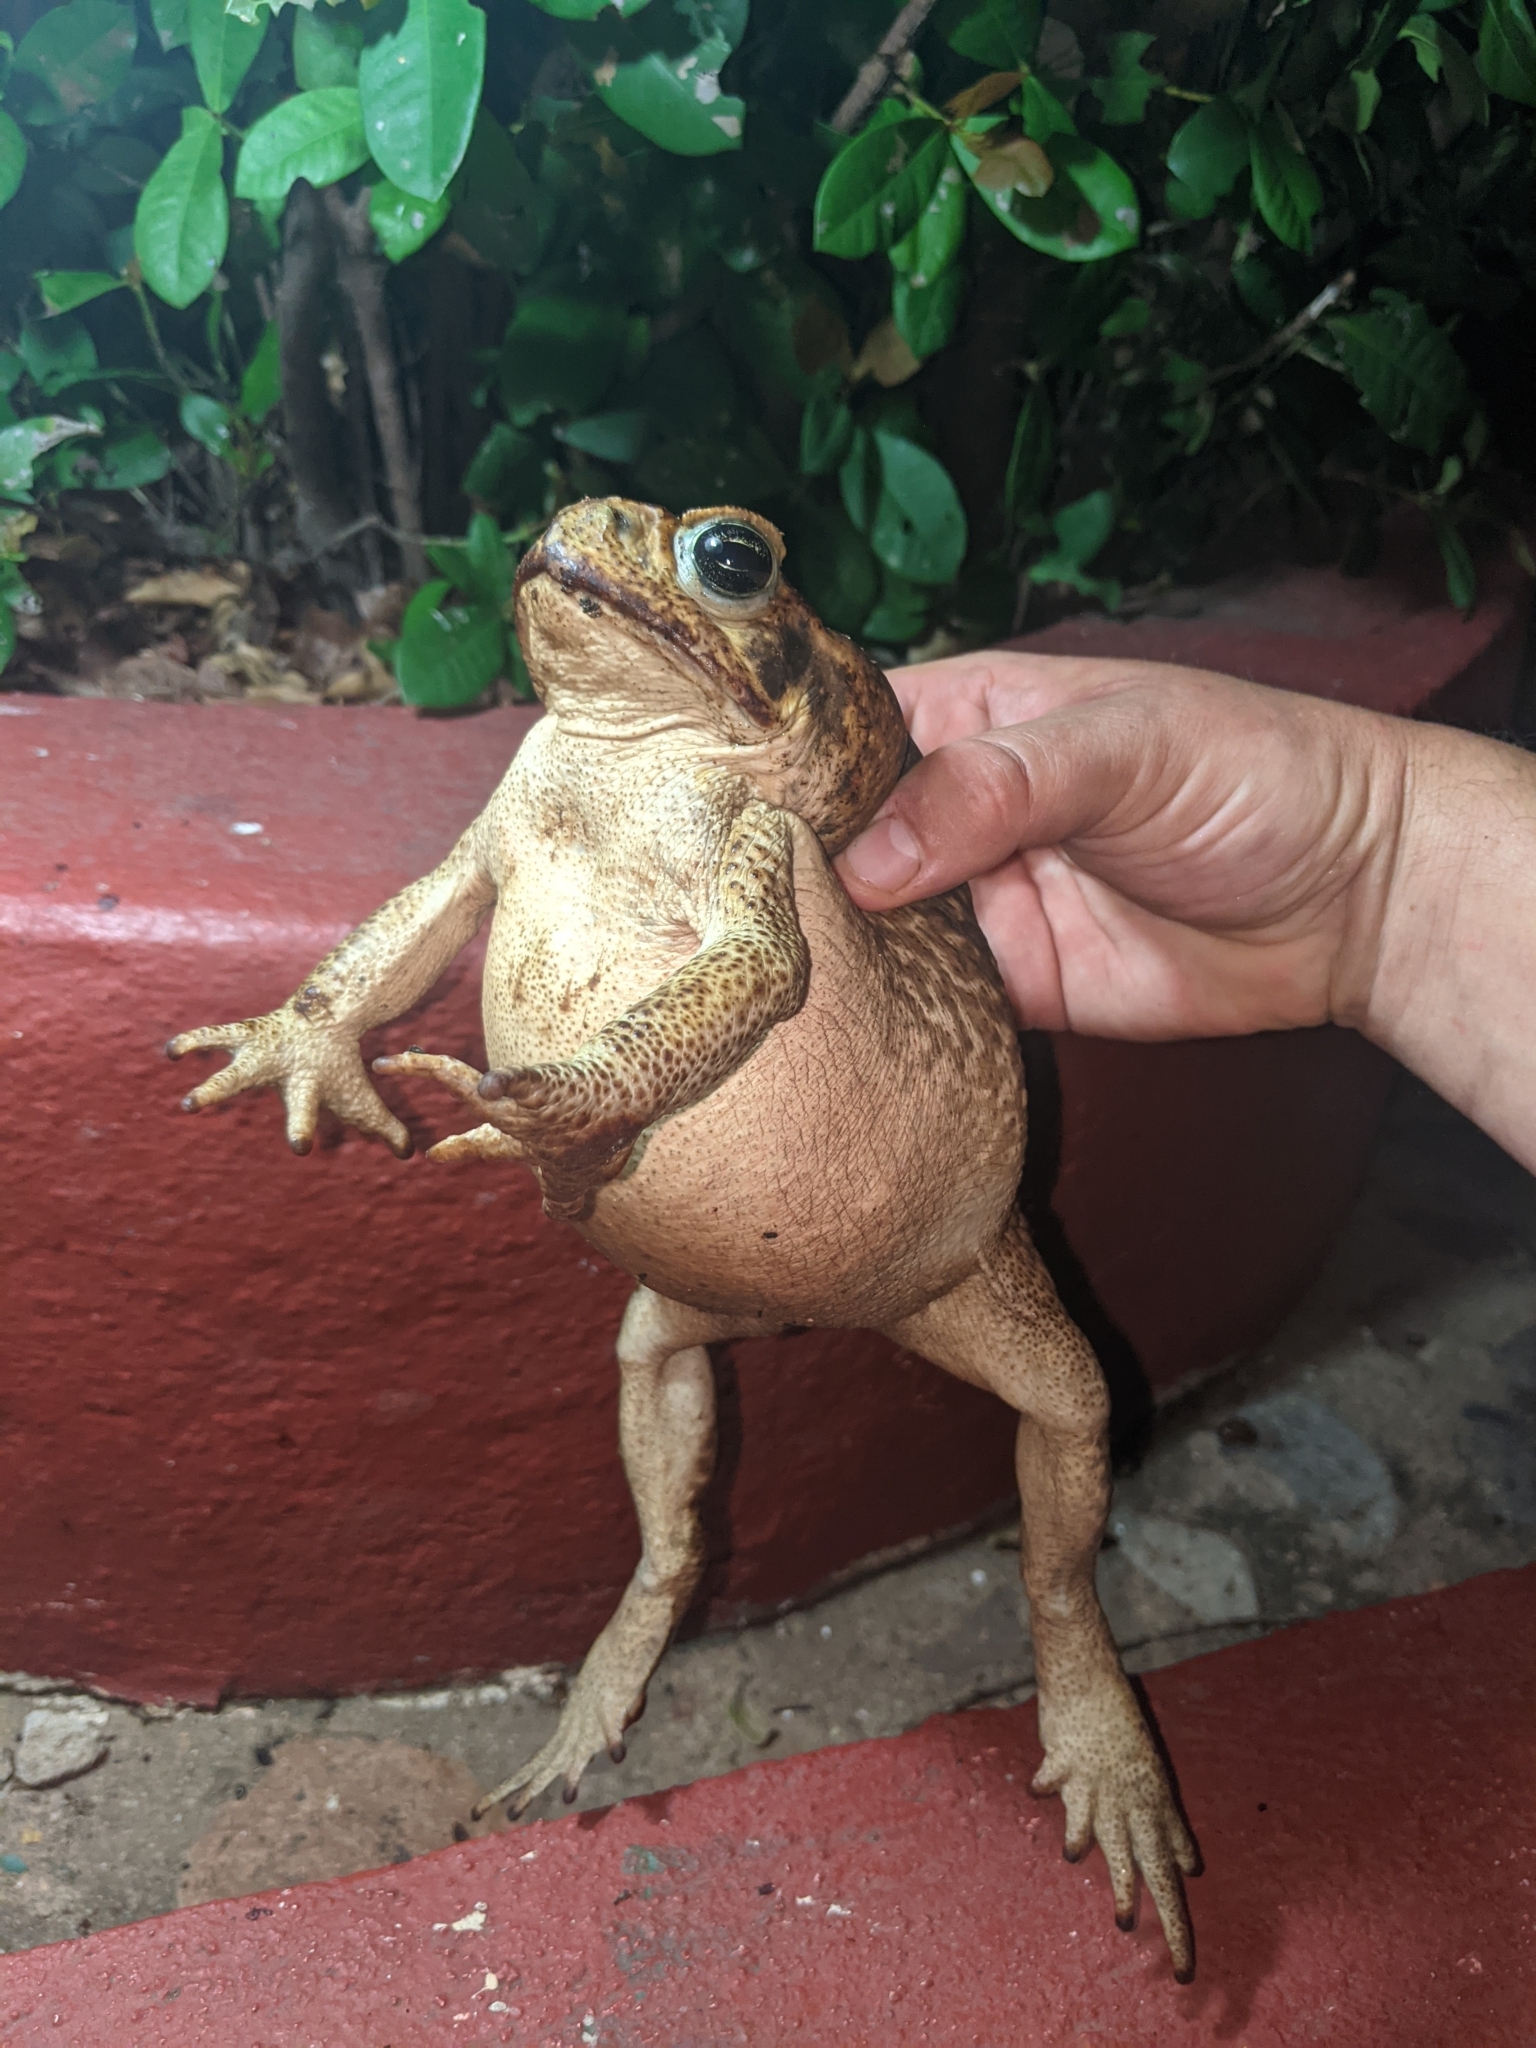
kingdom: Animalia
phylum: Chordata
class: Amphibia
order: Anura
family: Bufonidae
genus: Rhinella
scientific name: Rhinella horribilis
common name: Mesoamerican cane toad
